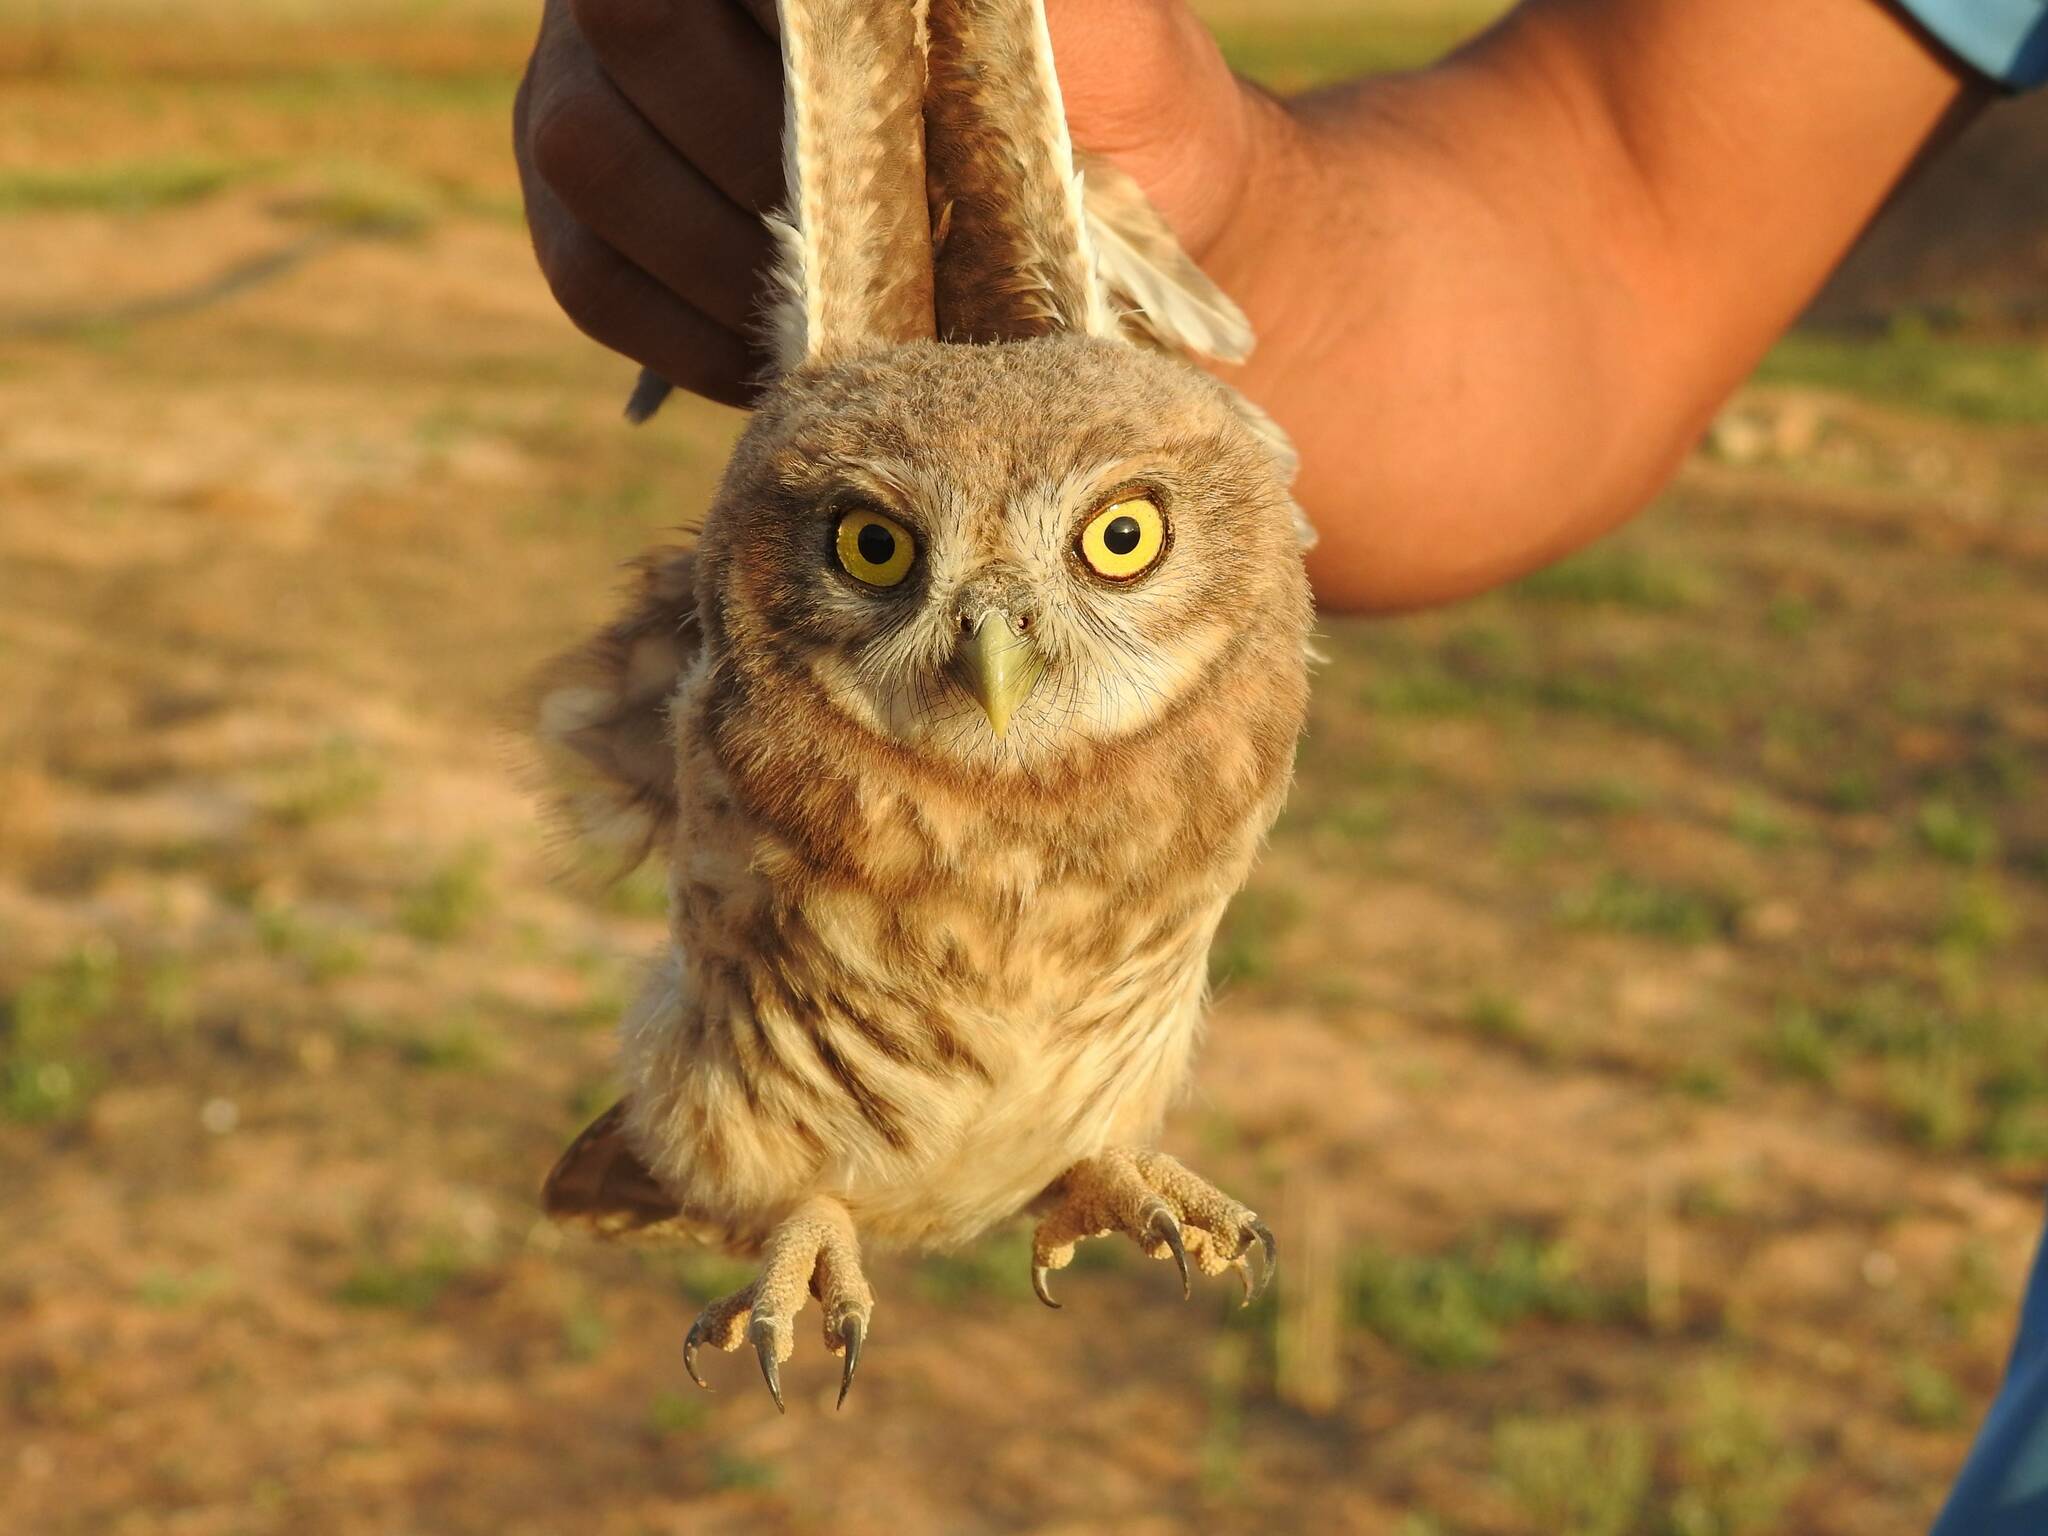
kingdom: Animalia
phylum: Chordata
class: Aves
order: Strigiformes
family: Strigidae
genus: Athene
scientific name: Athene noctua
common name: Little owl
